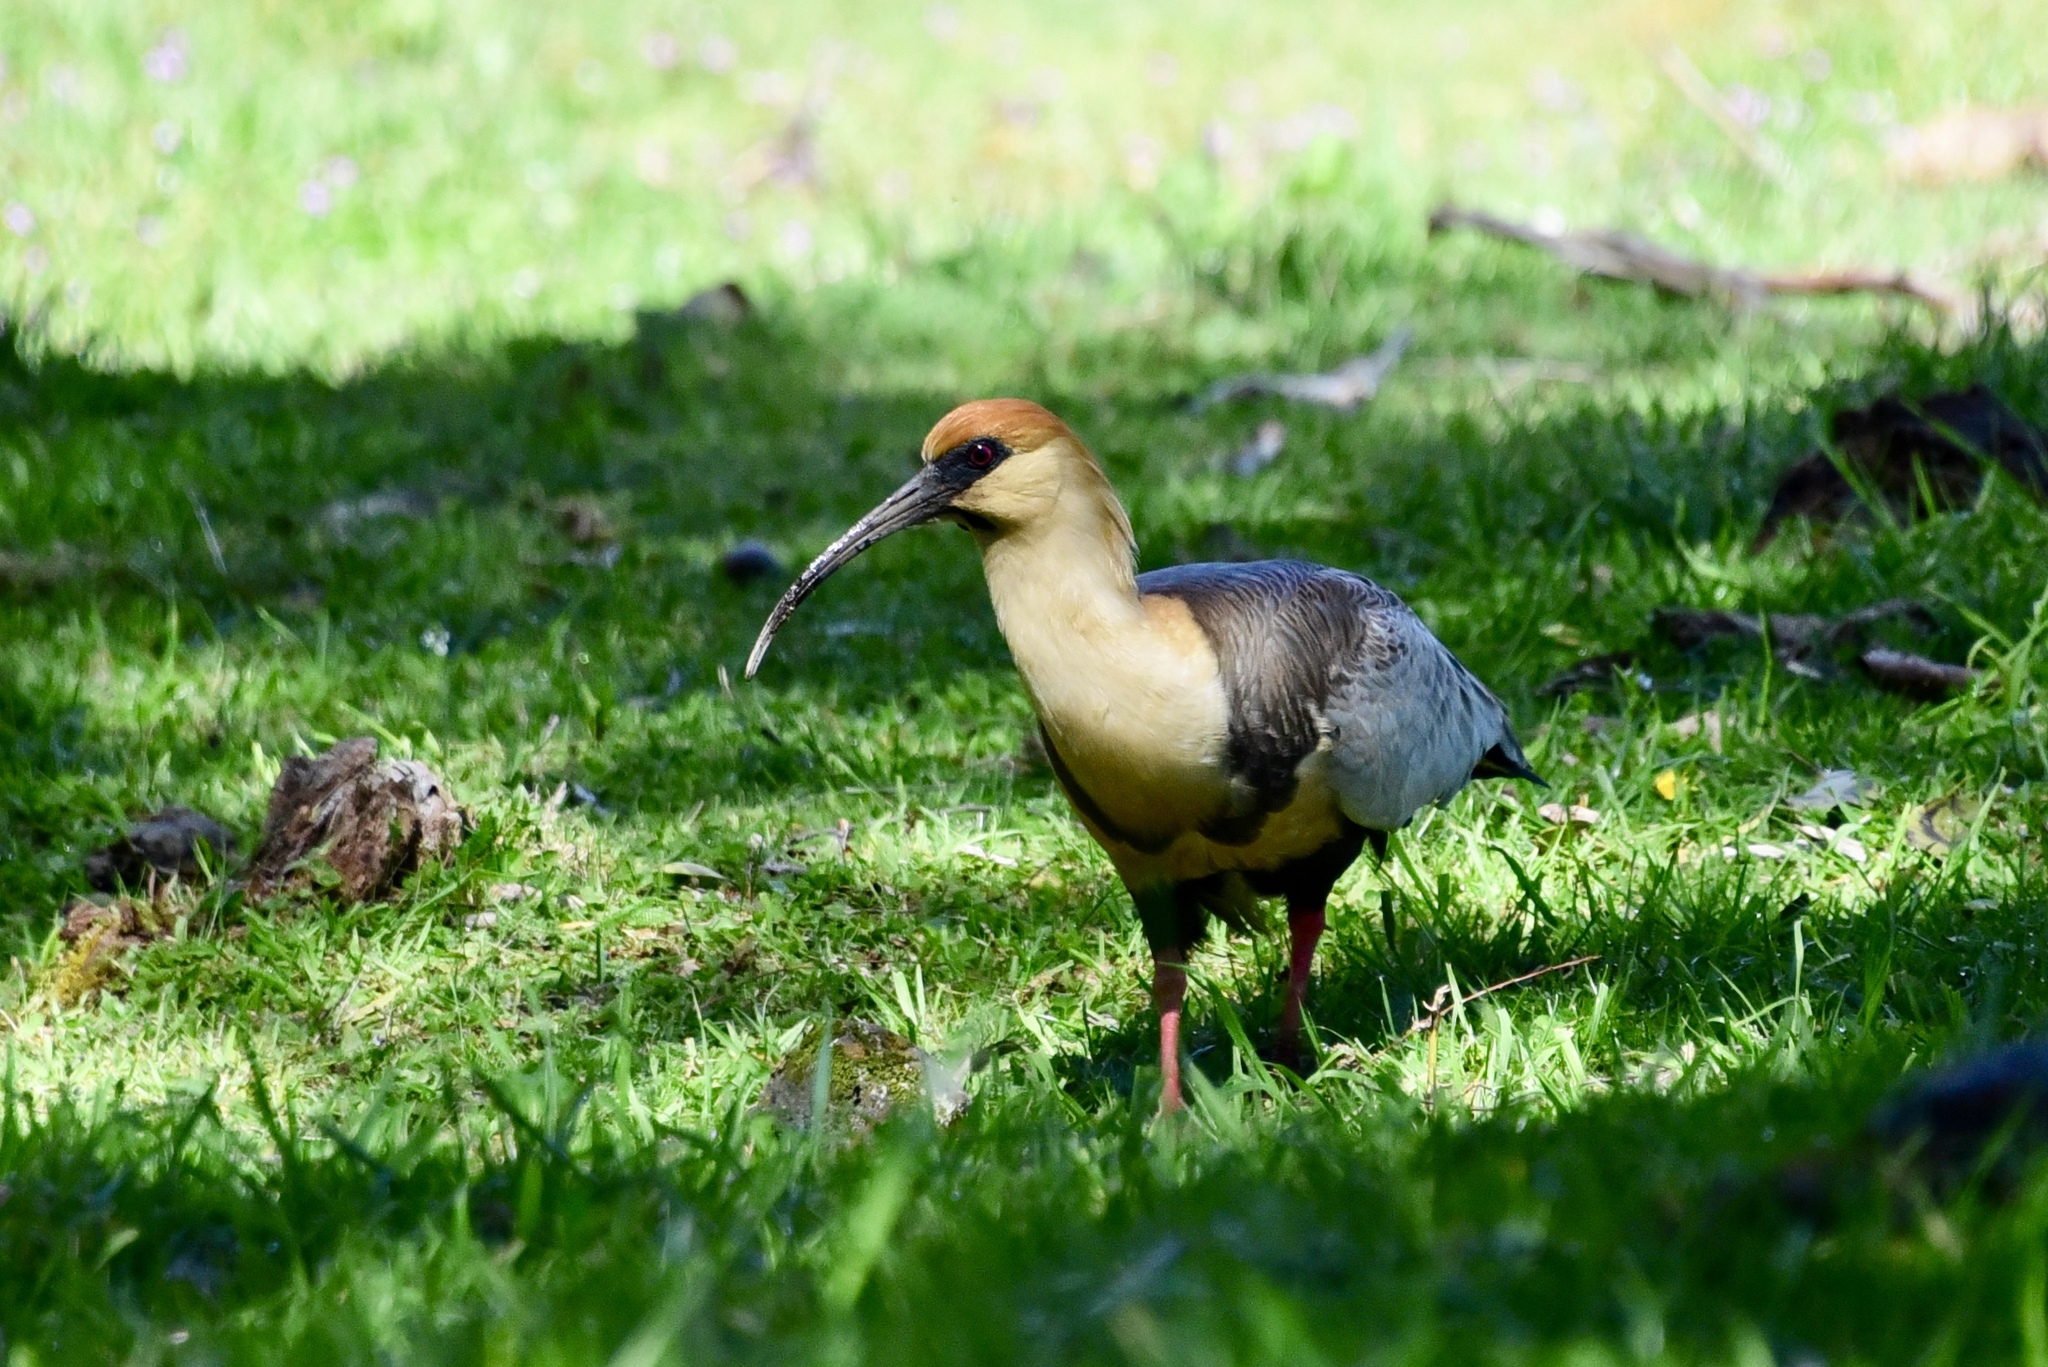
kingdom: Animalia
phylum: Chordata
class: Aves
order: Pelecaniformes
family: Threskiornithidae
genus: Theristicus
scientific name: Theristicus melanopis
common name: Black-faced ibis
